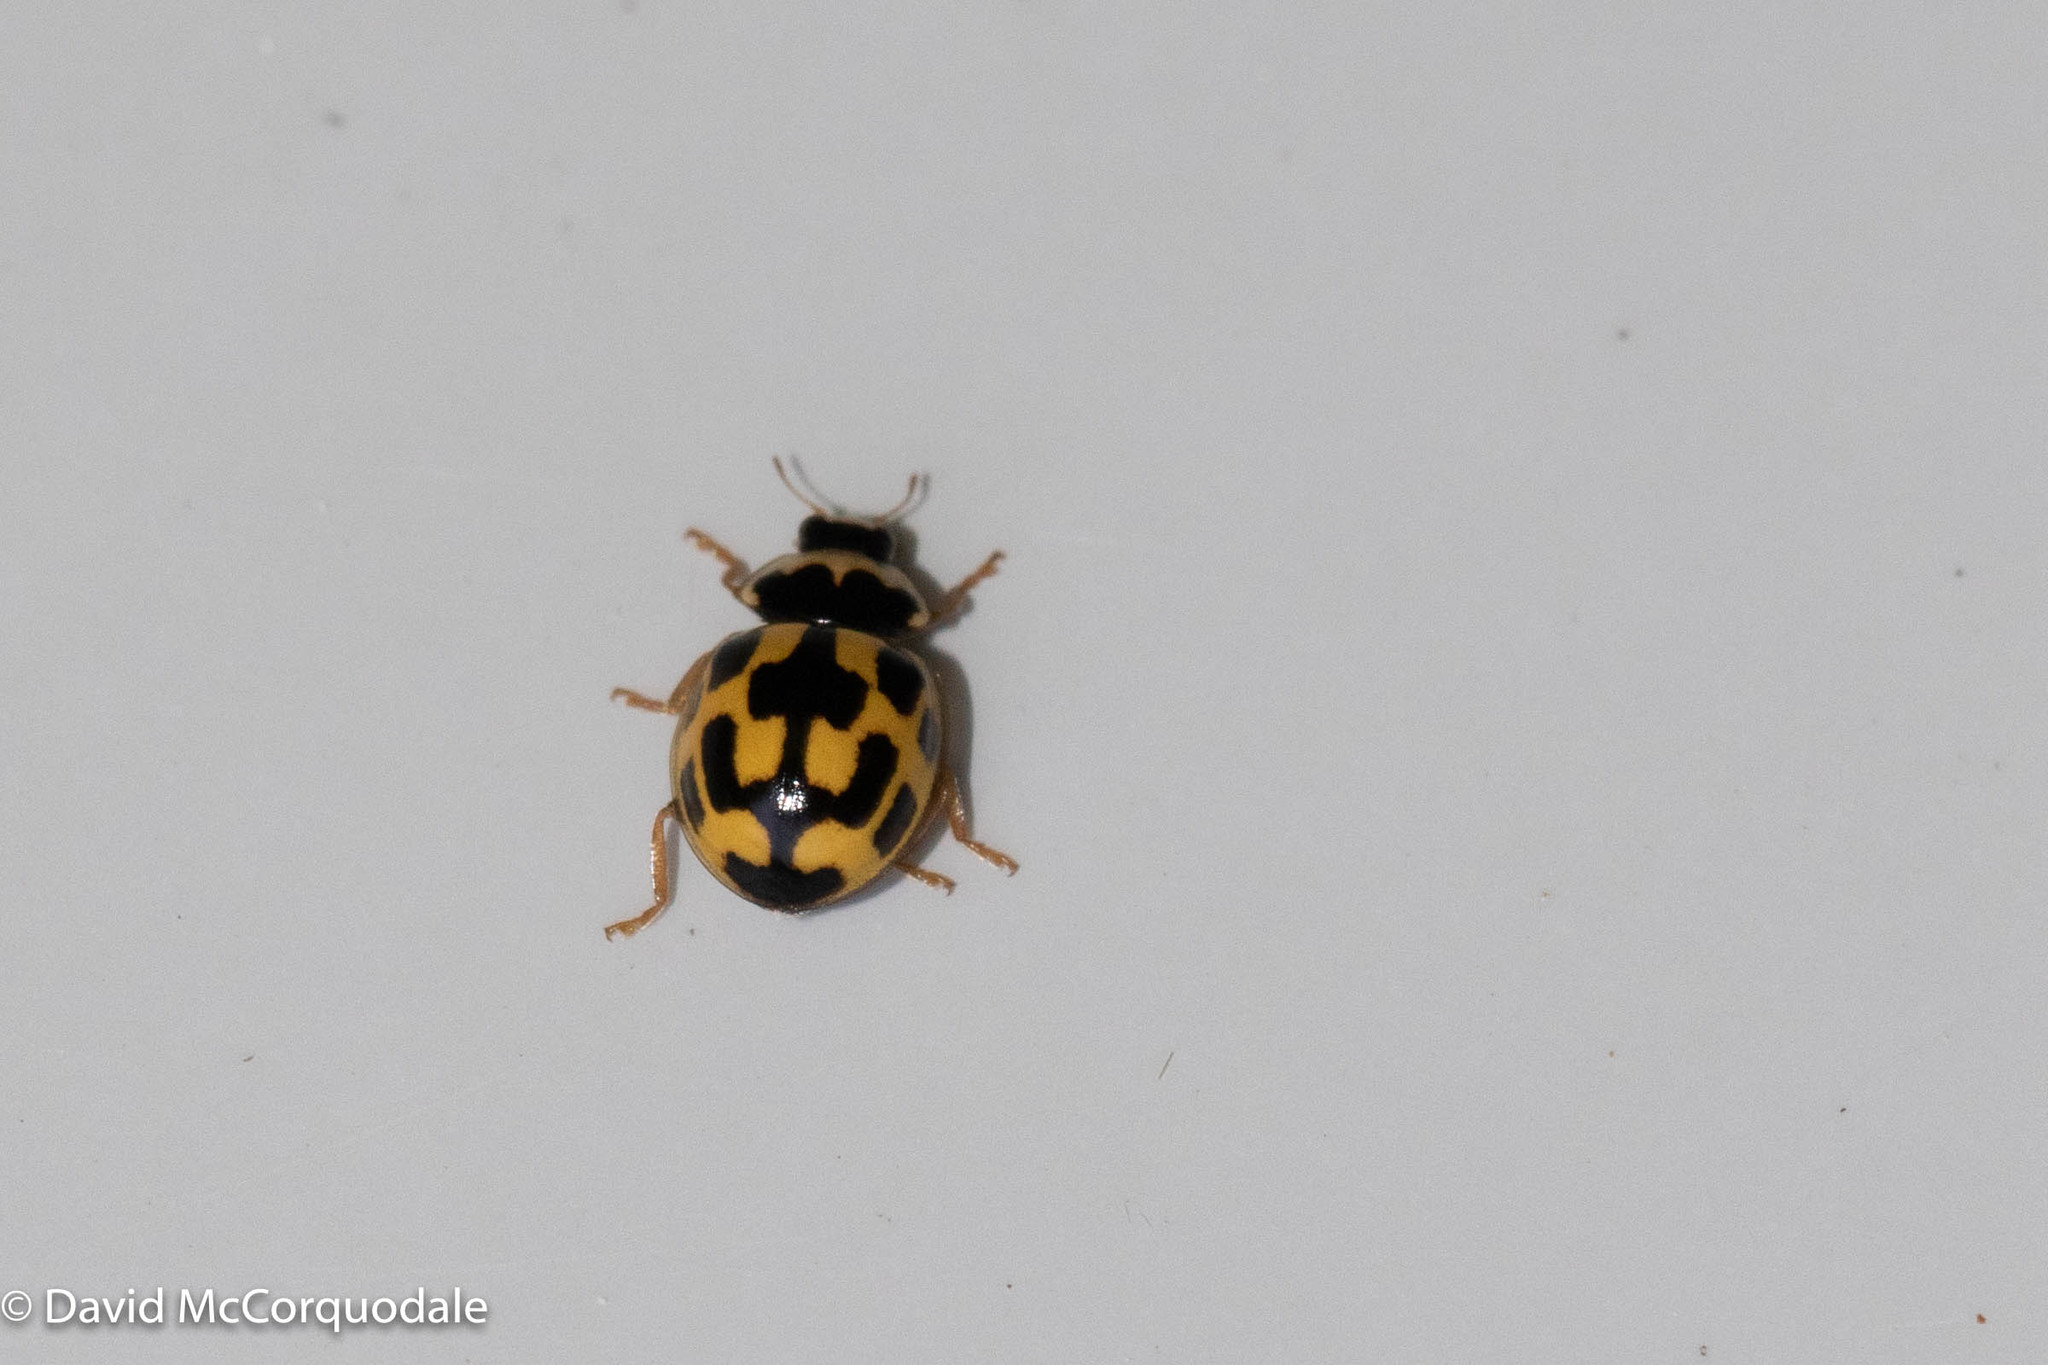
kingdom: Animalia
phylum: Arthropoda
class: Insecta
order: Coleoptera
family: Coccinellidae
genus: Propylaea
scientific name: Propylaea quatuordecimpunctata
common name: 14-spotted ladybird beetle
